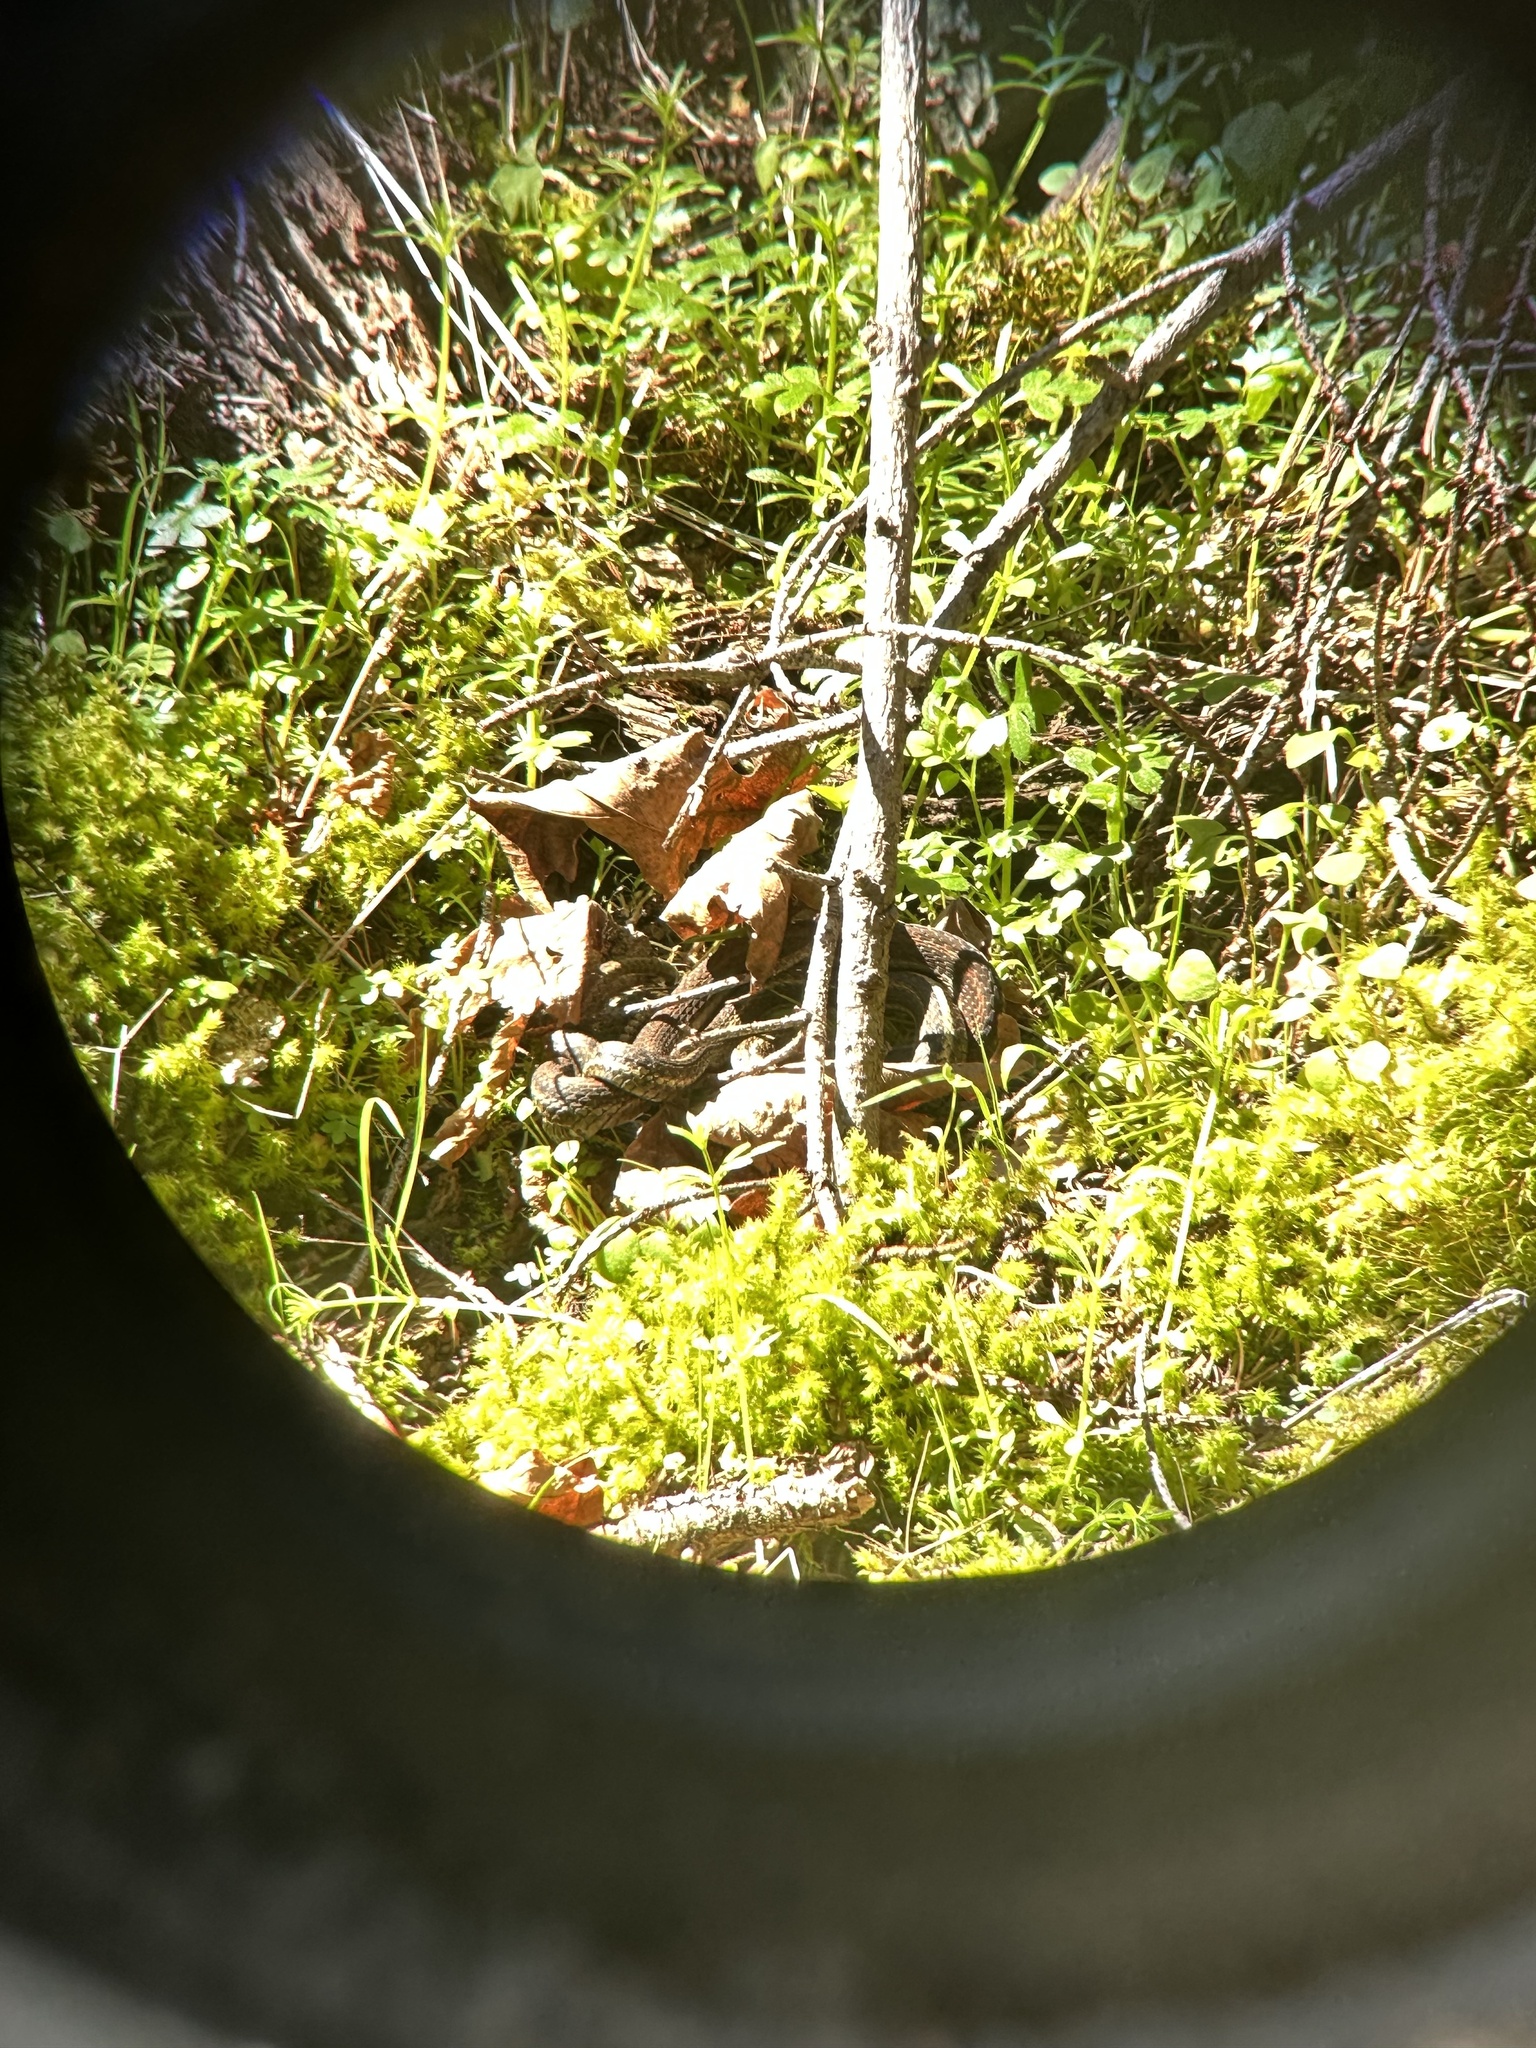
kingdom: Animalia
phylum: Chordata
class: Squamata
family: Colubridae
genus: Thamnophis
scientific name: Thamnophis ordinoides
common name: Northwestern garter snake
